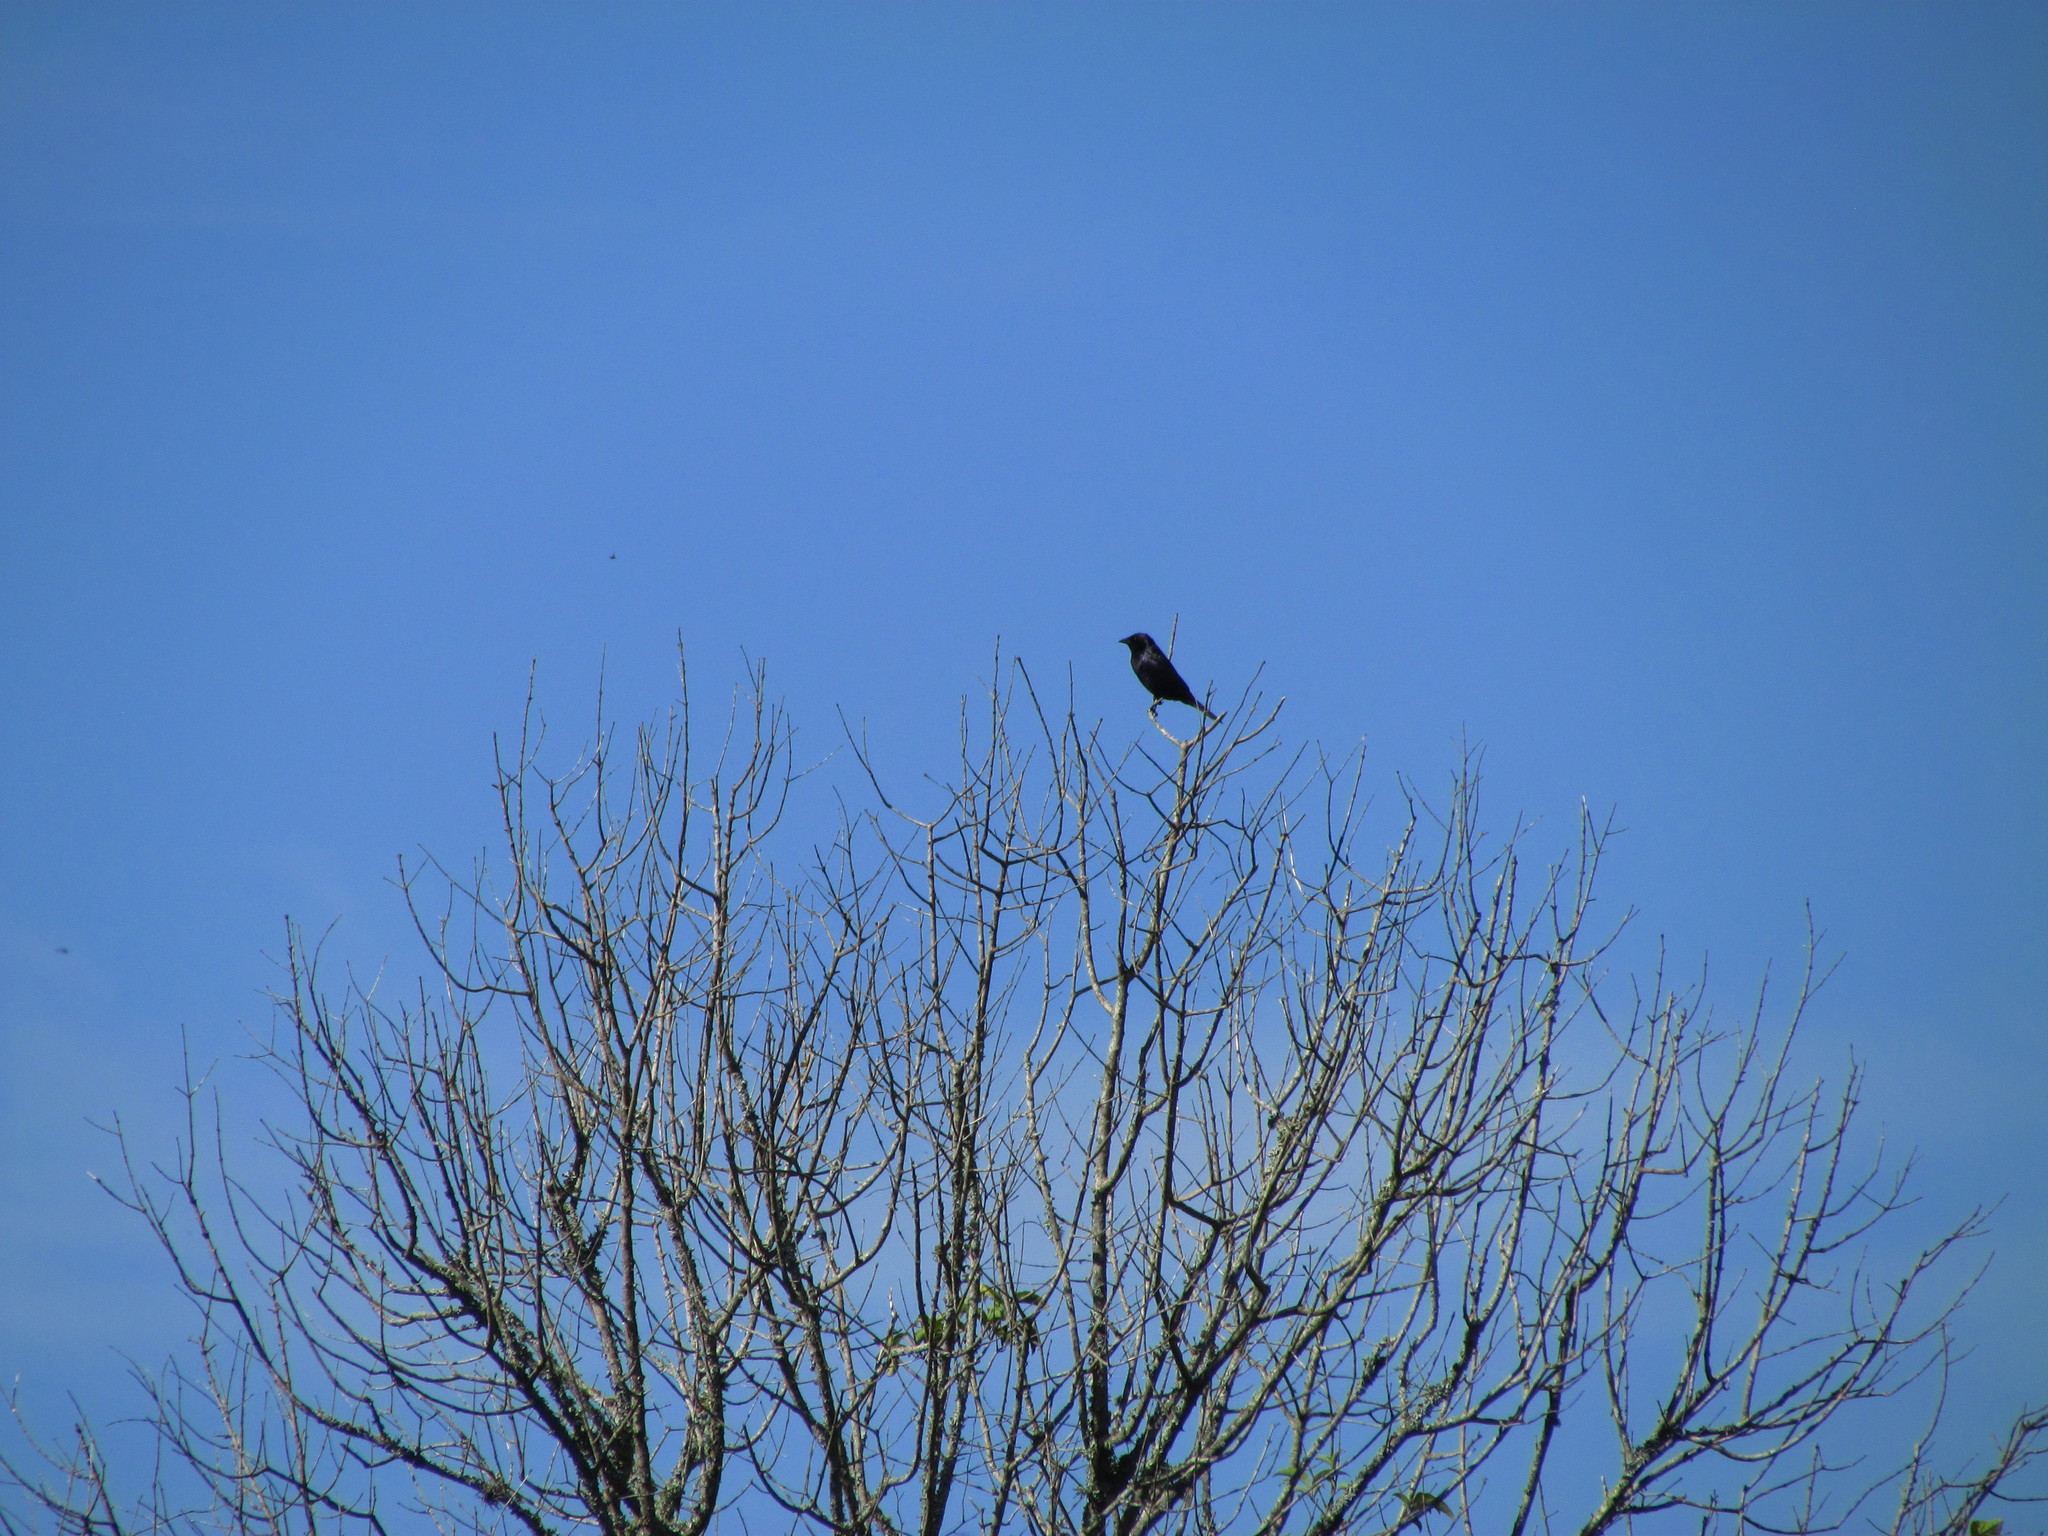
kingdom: Animalia
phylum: Chordata
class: Aves
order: Passeriformes
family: Icteridae
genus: Molothrus
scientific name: Molothrus bonariensis
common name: Shiny cowbird
